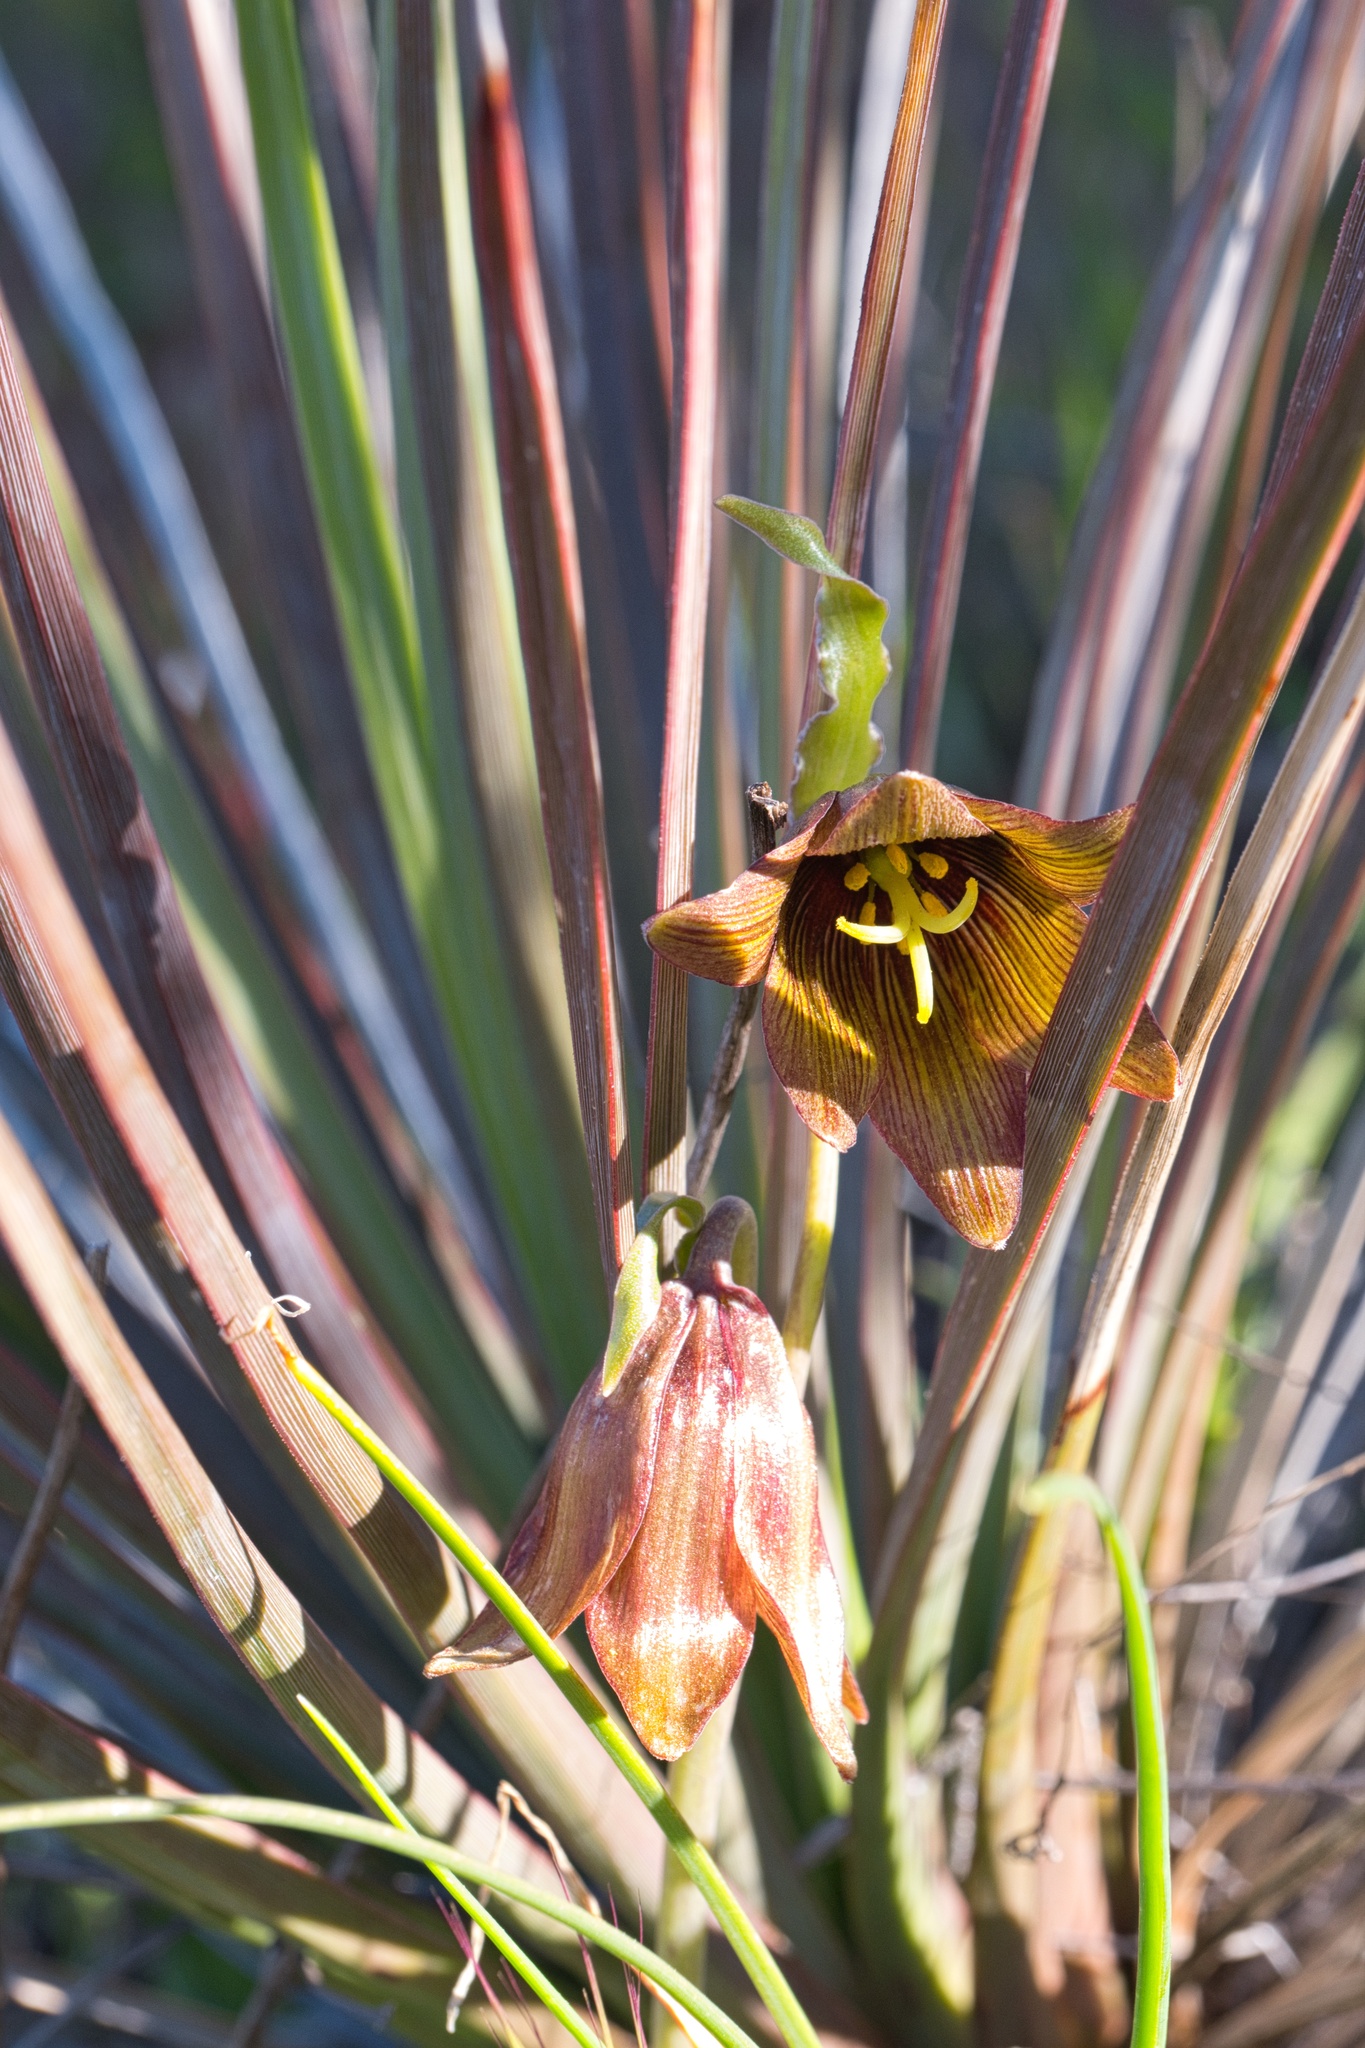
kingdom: Plantae
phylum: Tracheophyta
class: Liliopsida
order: Liliales
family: Liliaceae
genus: Fritillaria
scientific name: Fritillaria biflora
